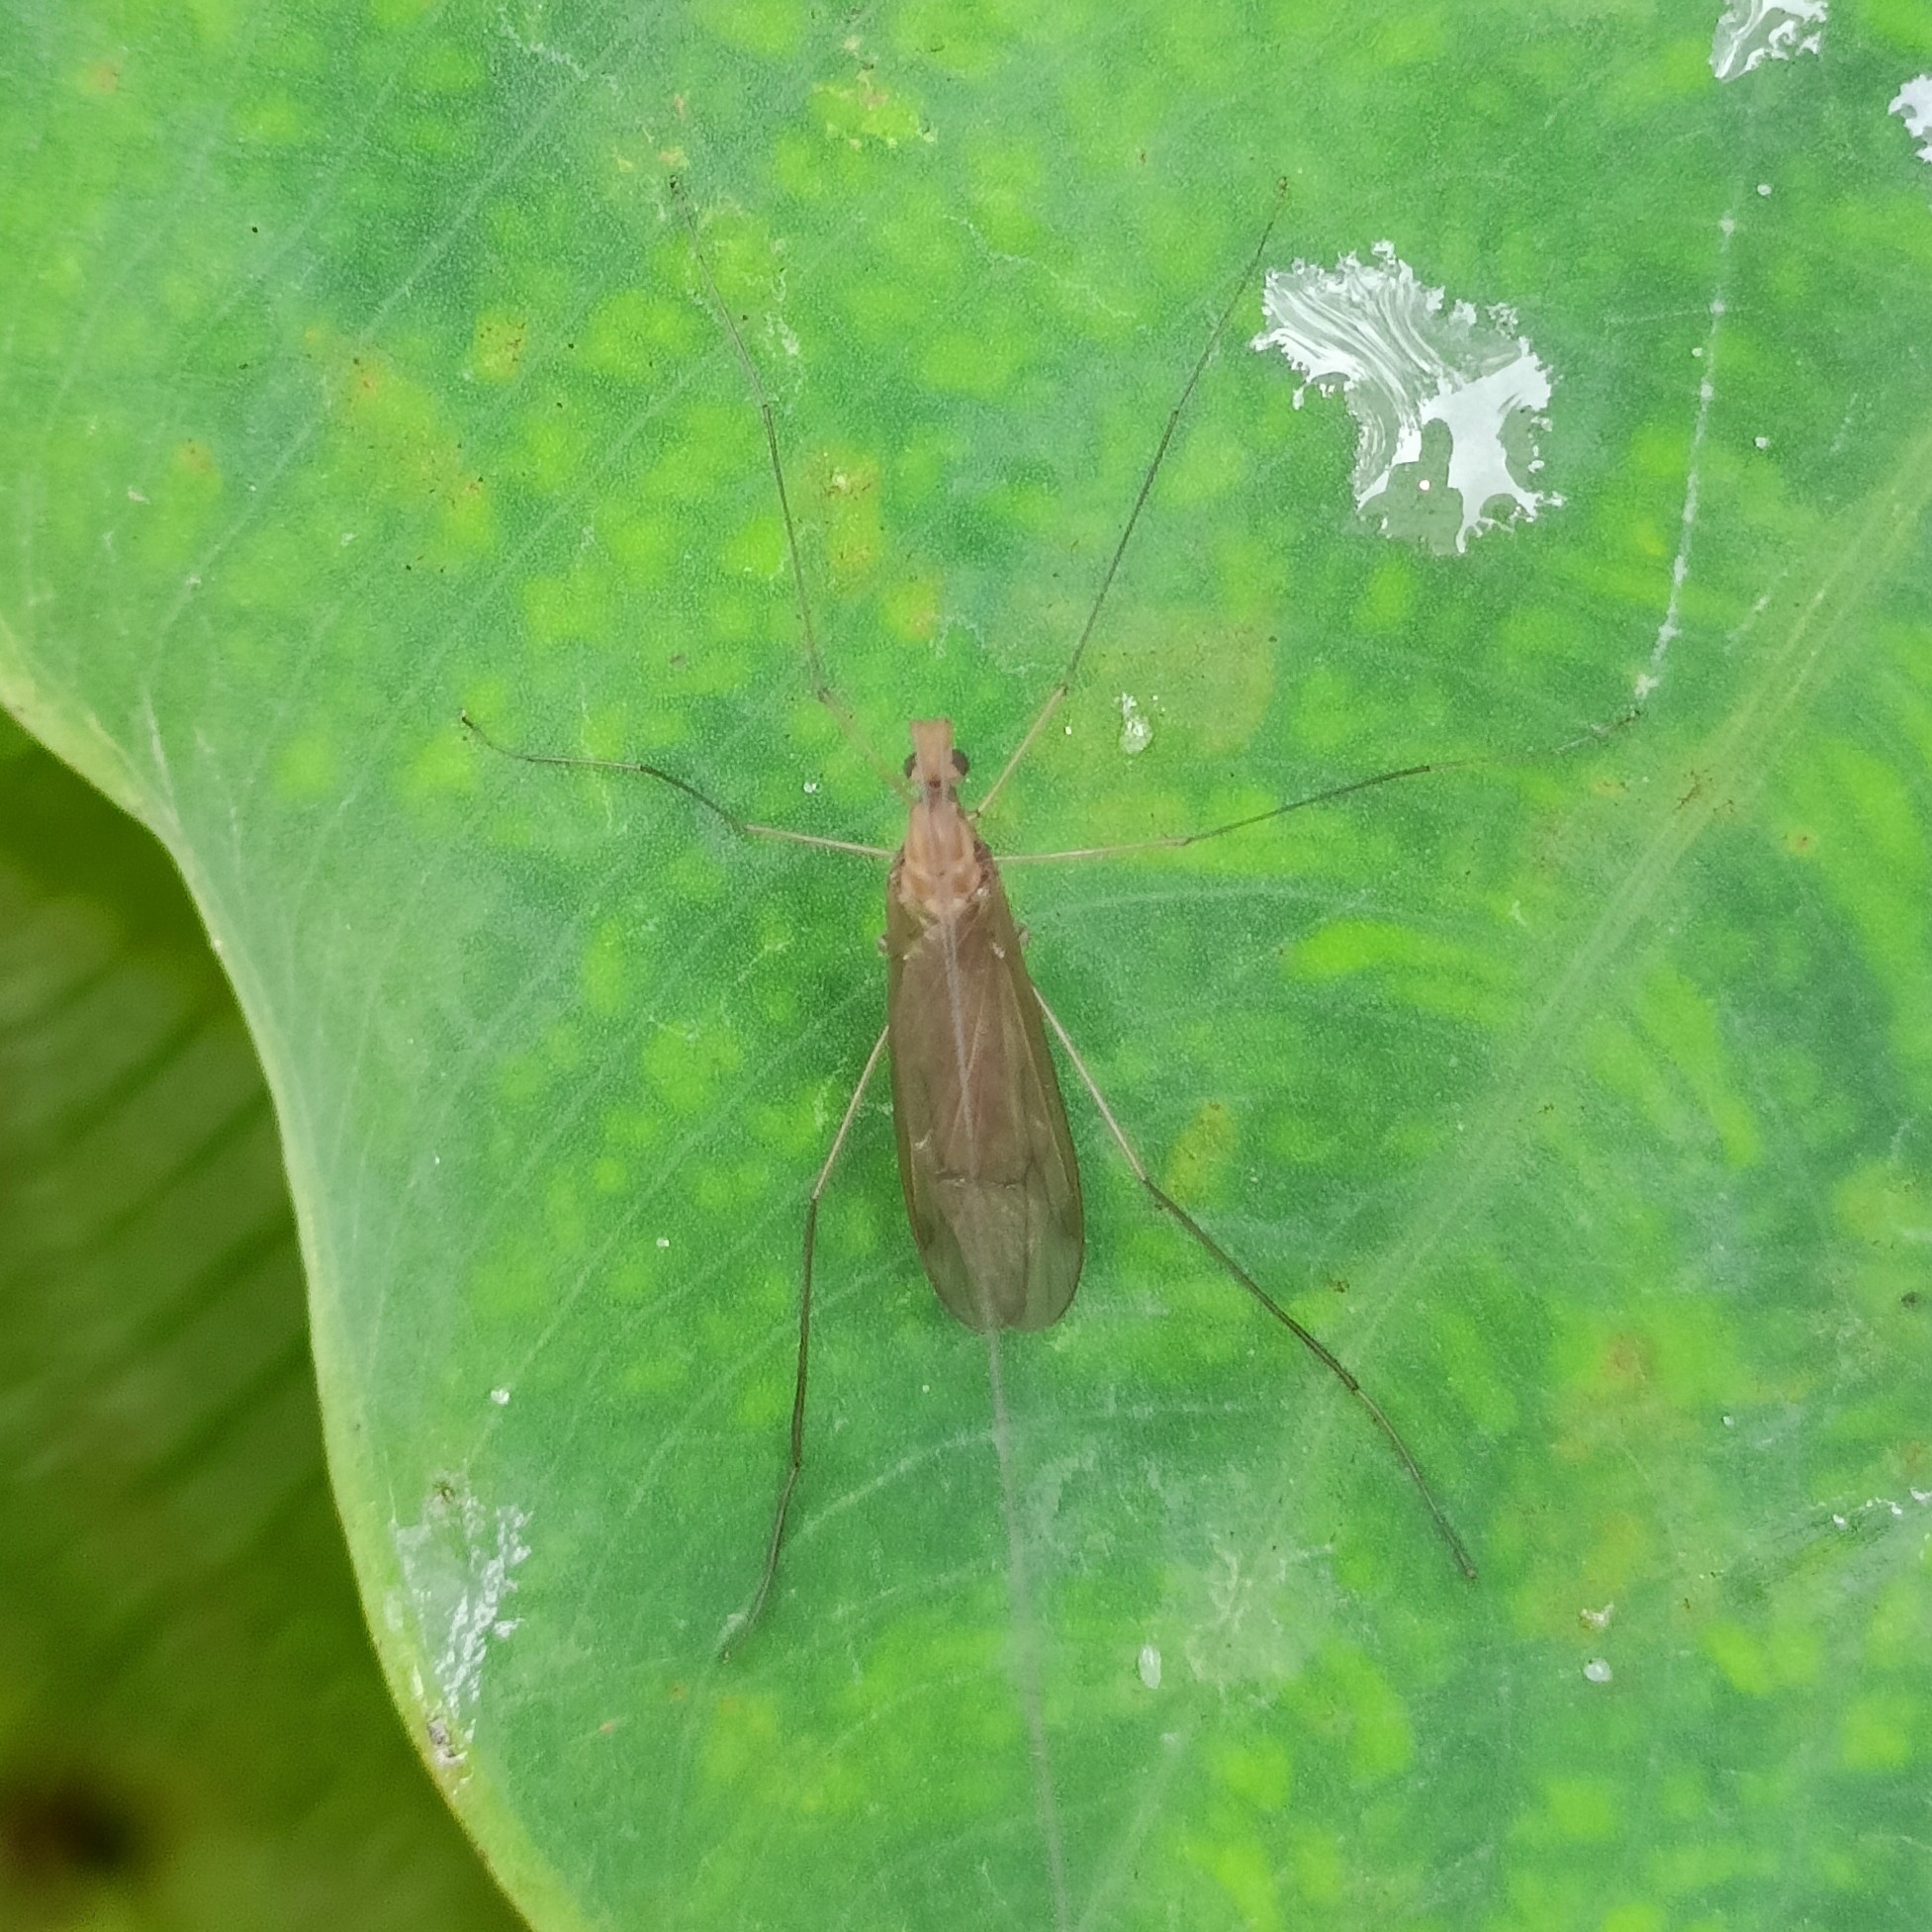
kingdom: Animalia
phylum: Arthropoda
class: Insecta
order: Diptera
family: Limoniidae
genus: Hexatoma
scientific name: Hexatoma khasiensis
